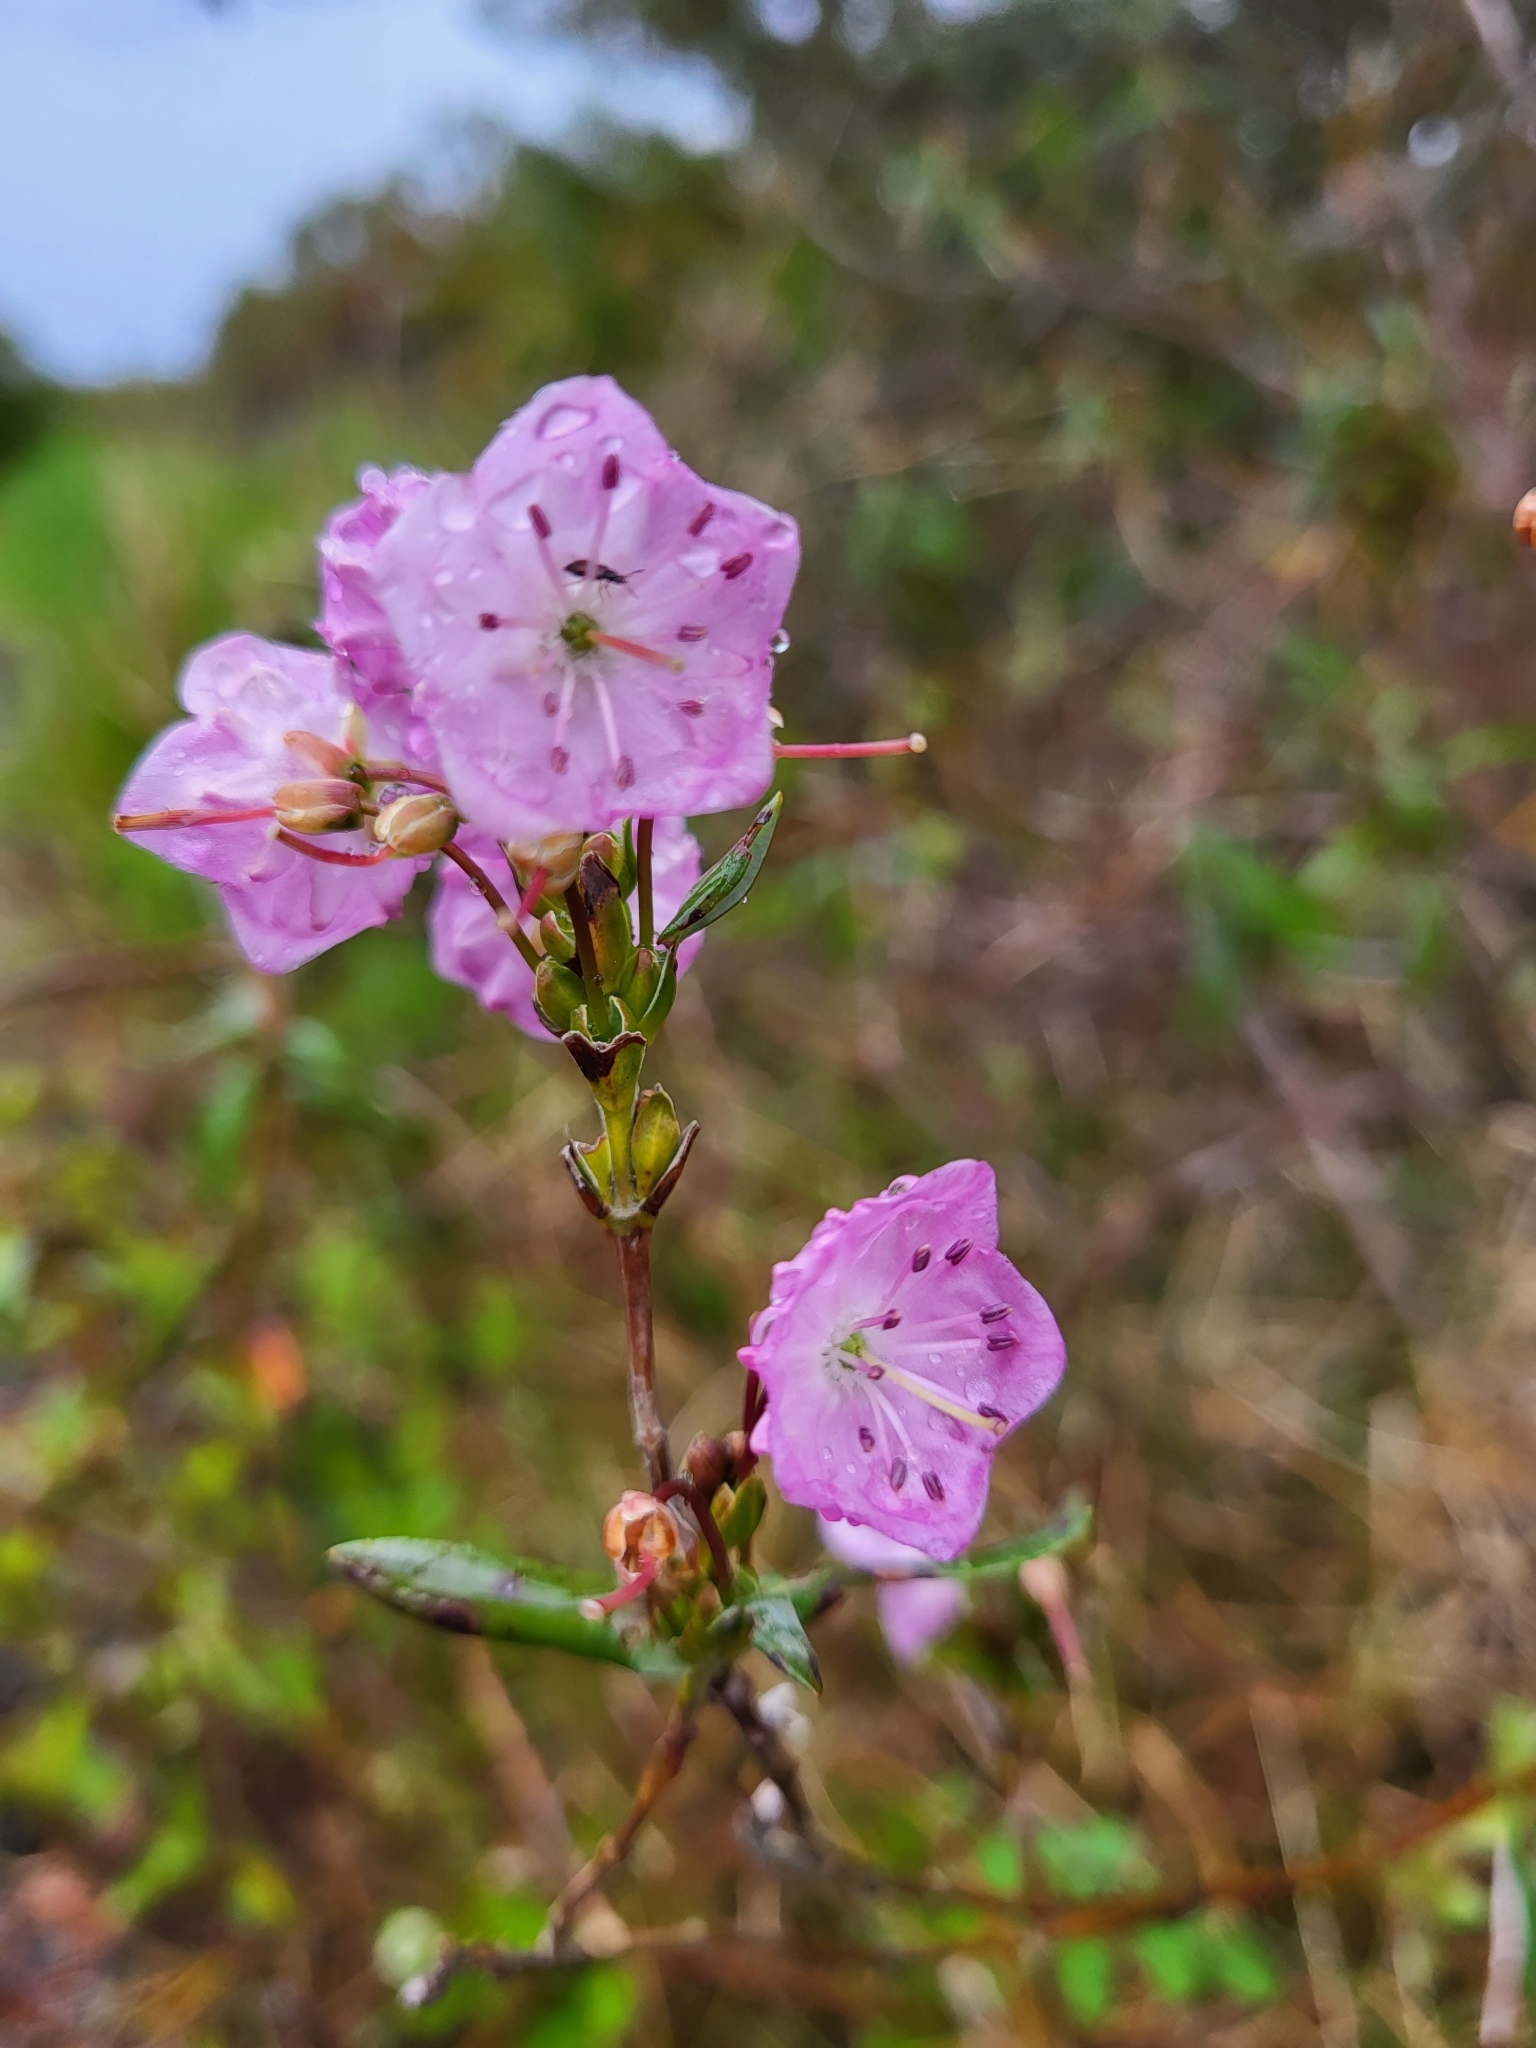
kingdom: Plantae
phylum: Tracheophyta
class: Magnoliopsida
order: Ericales
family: Ericaceae
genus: Kalmia
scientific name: Kalmia microphylla
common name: Alpine bog laurel
